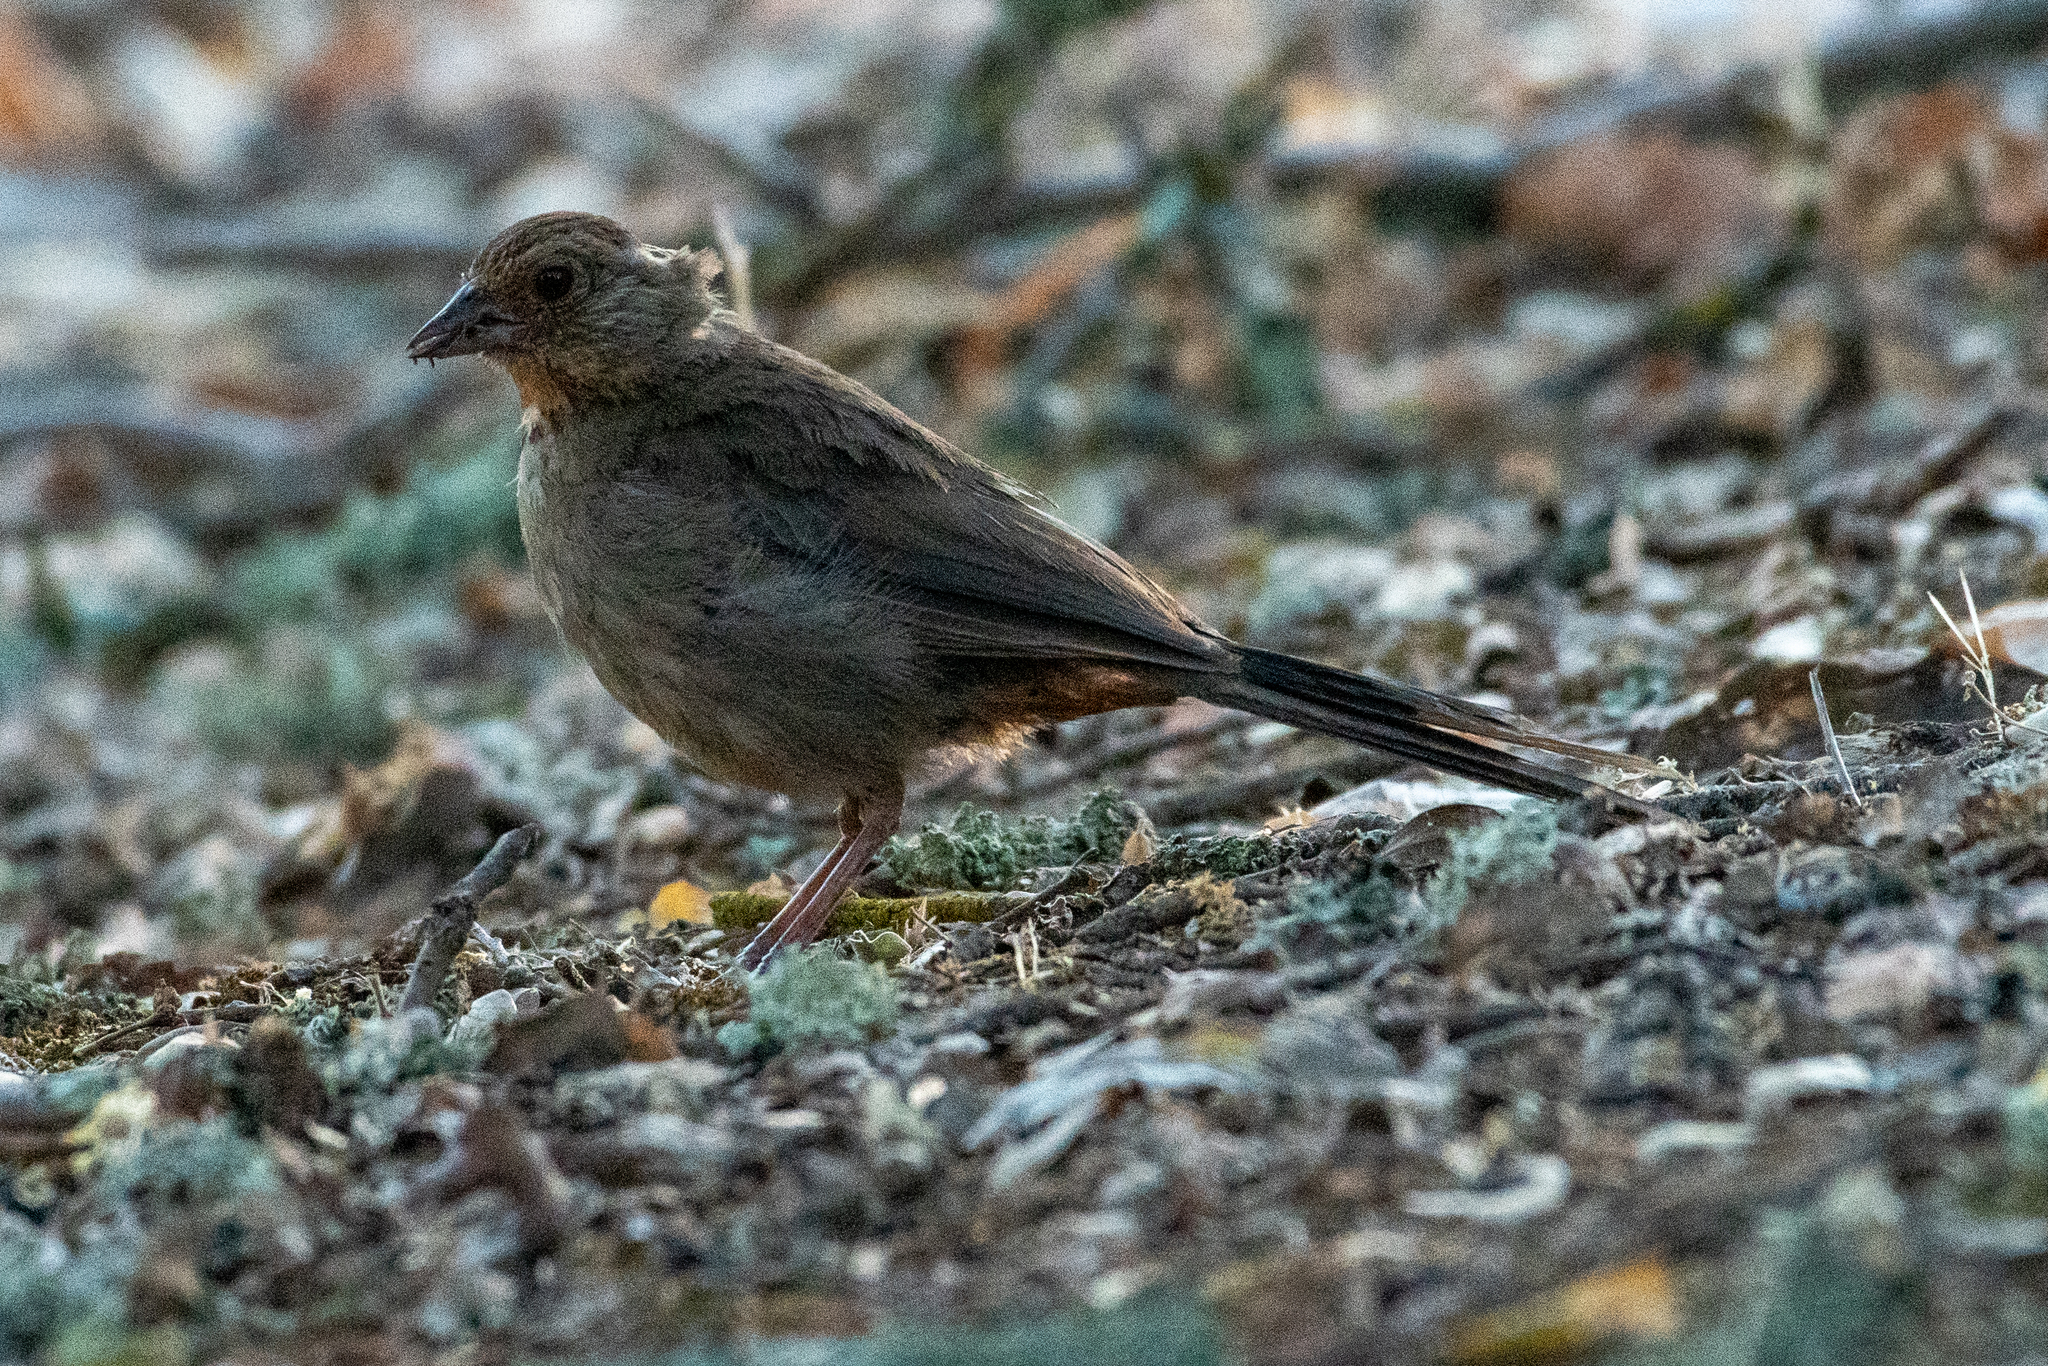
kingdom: Animalia
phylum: Chordata
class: Aves
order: Passeriformes
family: Passerellidae
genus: Melozone
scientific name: Melozone crissalis
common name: California towhee
